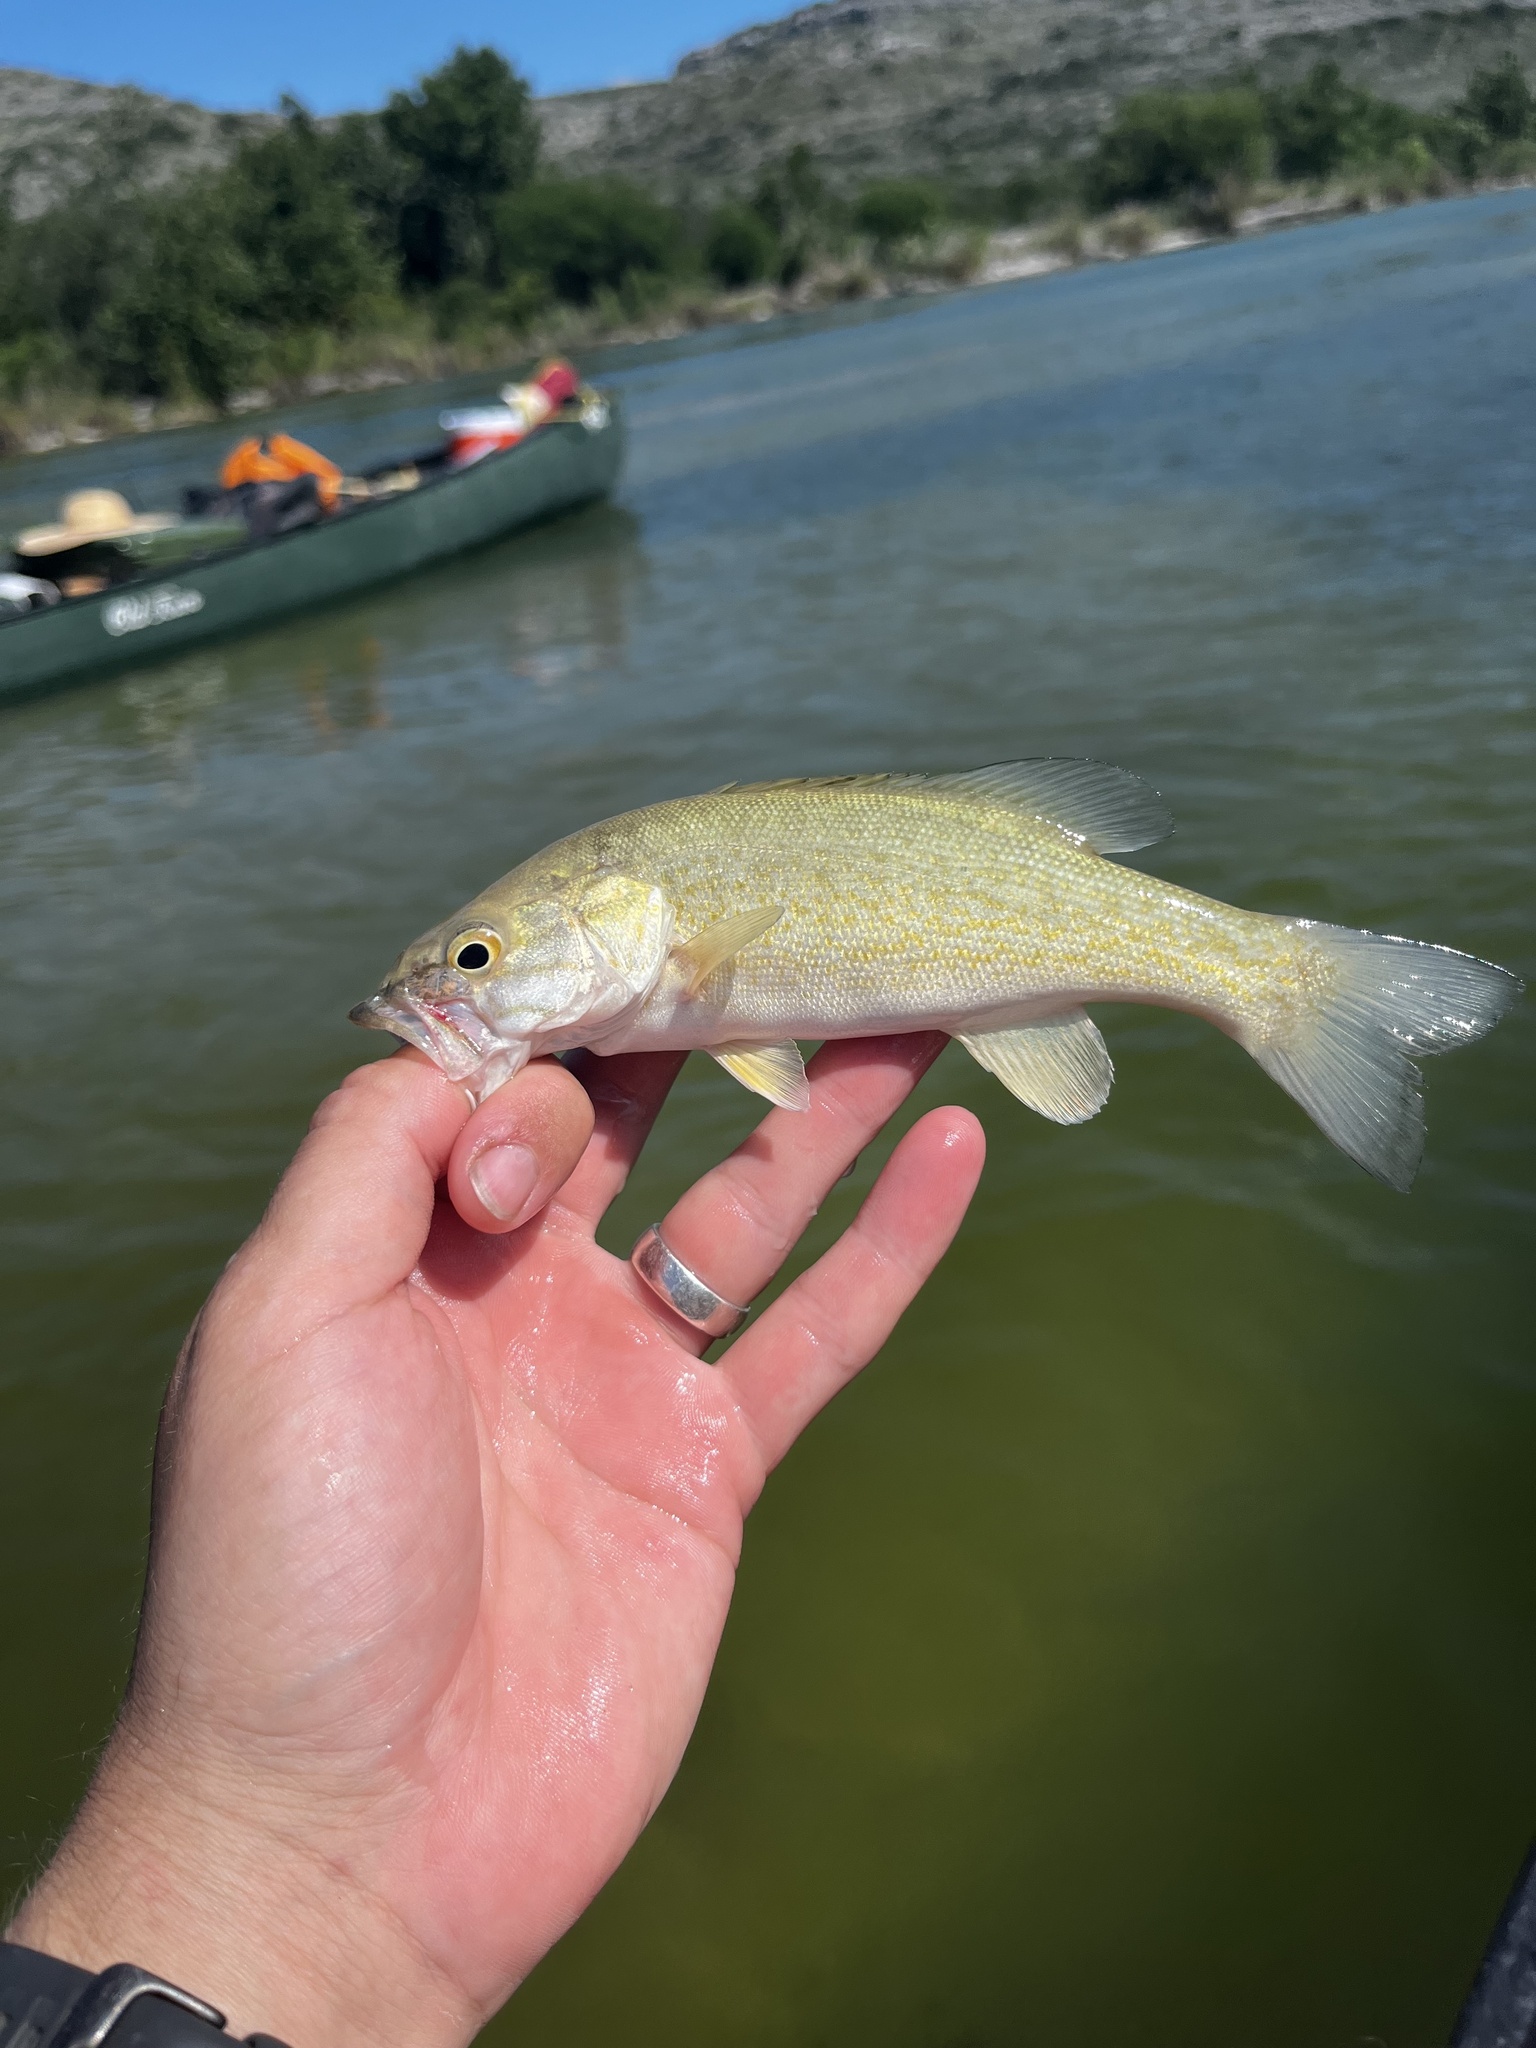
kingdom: Animalia
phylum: Chordata
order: Perciformes
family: Centrarchidae
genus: Micropterus
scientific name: Micropterus dolomieu
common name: Smallmouth bass
